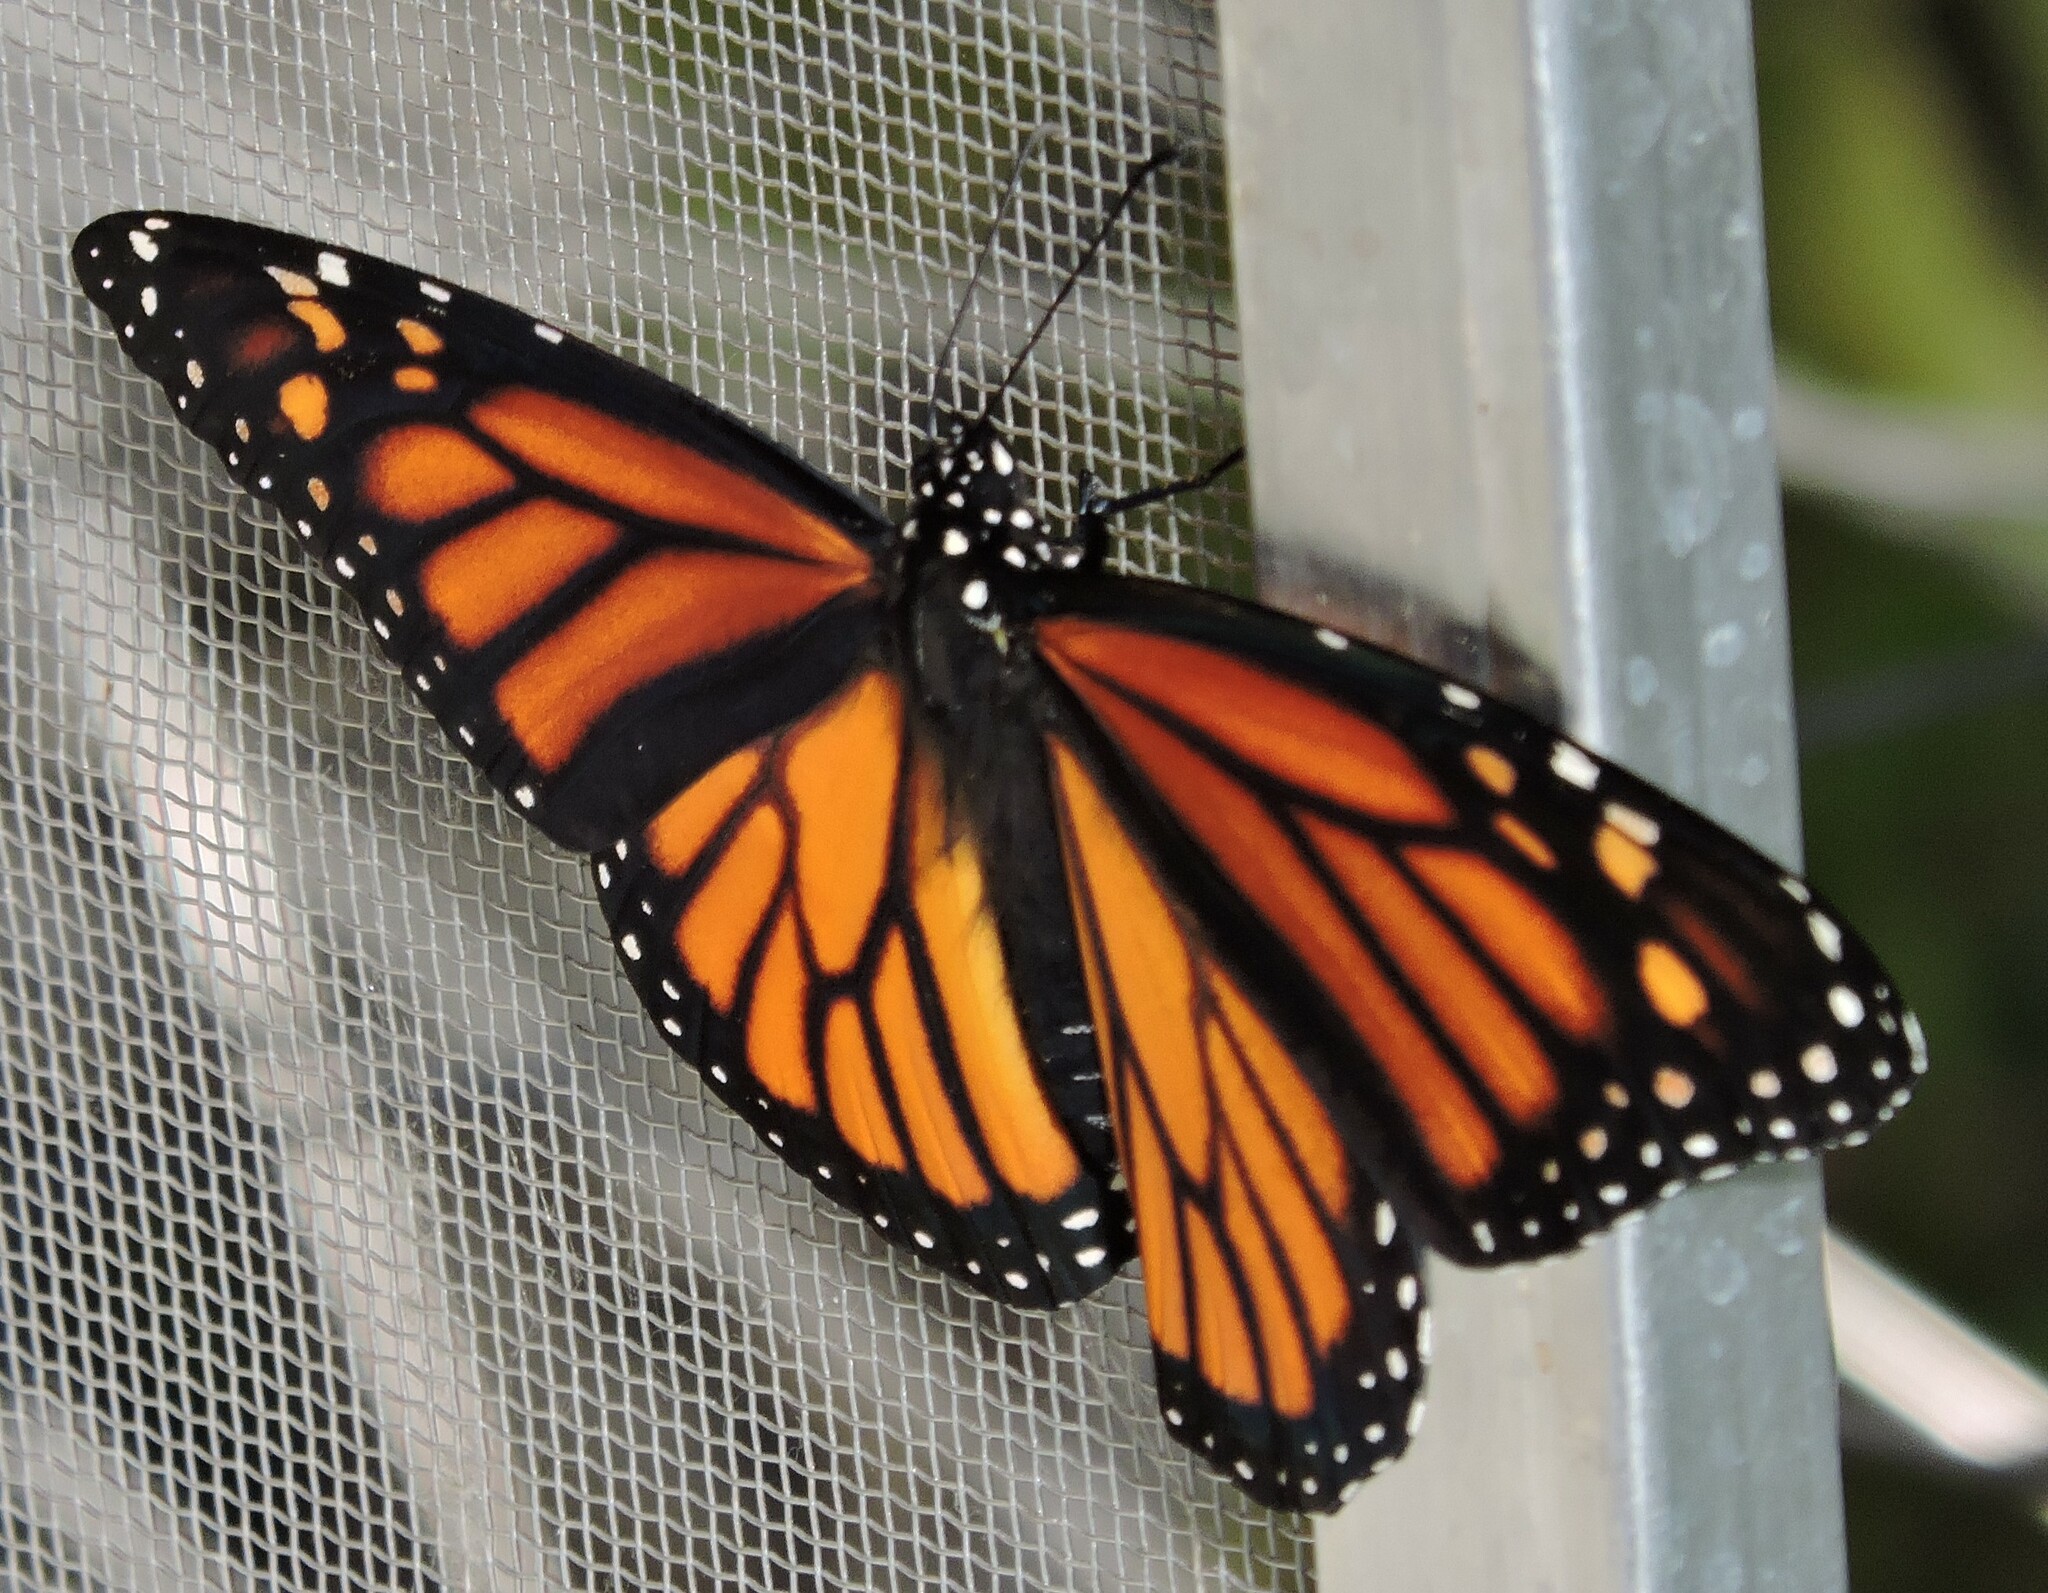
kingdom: Animalia
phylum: Arthropoda
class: Insecta
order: Lepidoptera
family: Nymphalidae
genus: Danaus
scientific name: Danaus plexippus
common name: Monarch
